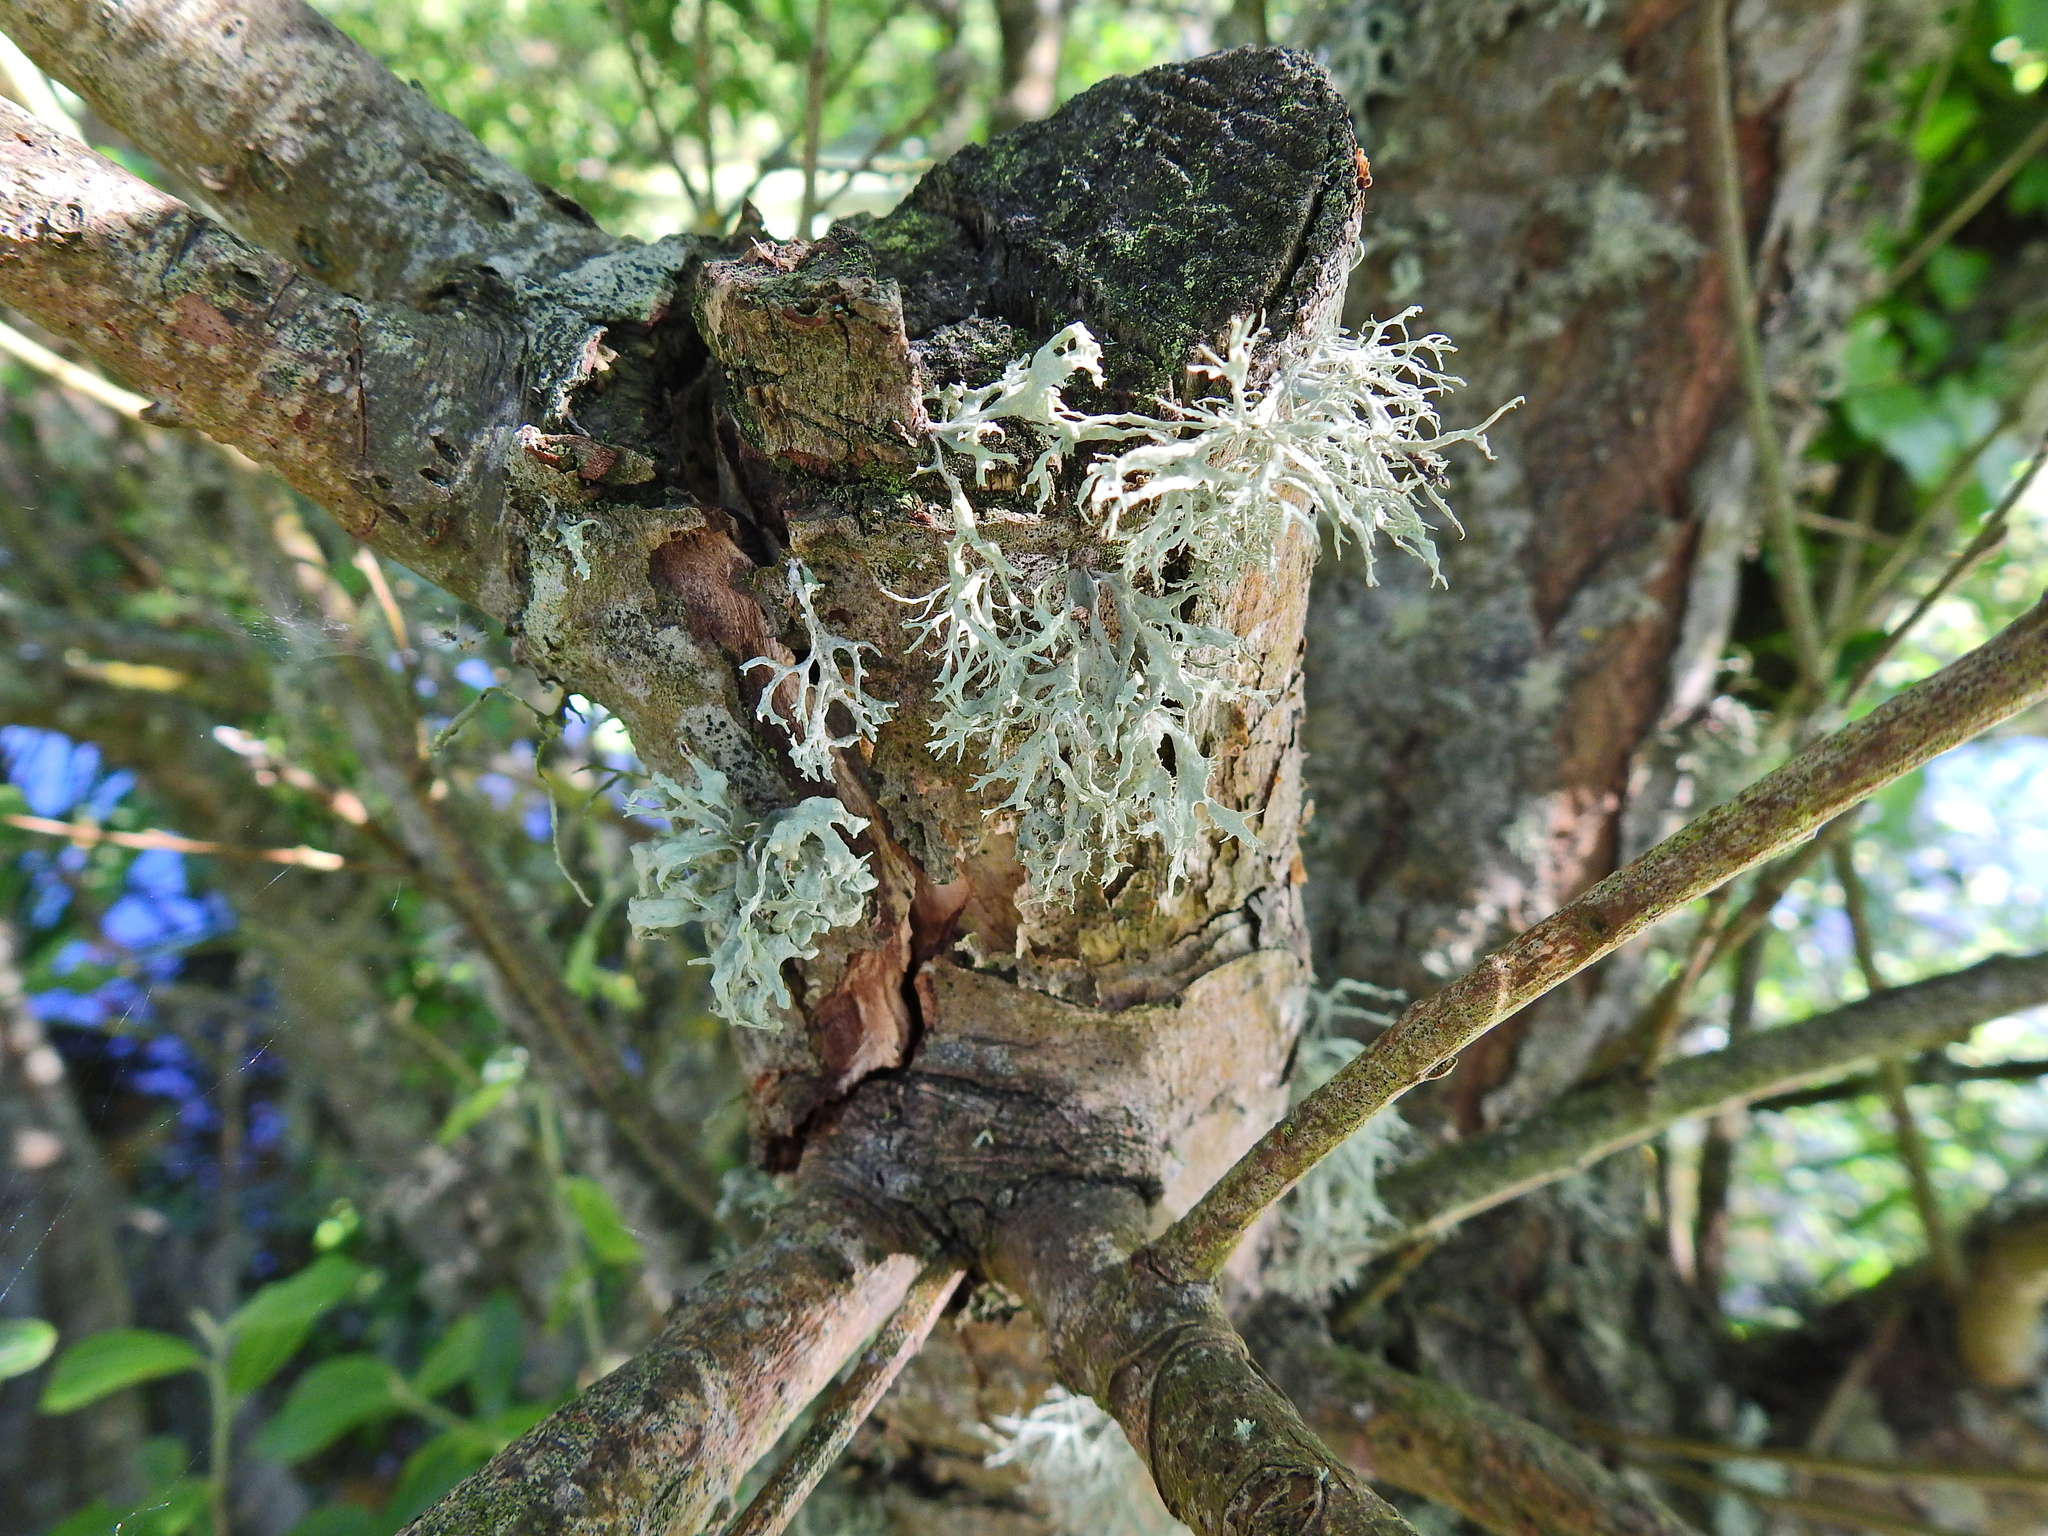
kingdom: Fungi
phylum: Ascomycota
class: Lecanoromycetes
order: Lecanorales
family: Parmeliaceae
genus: Evernia
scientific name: Evernia prunastri
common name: Oak moss
